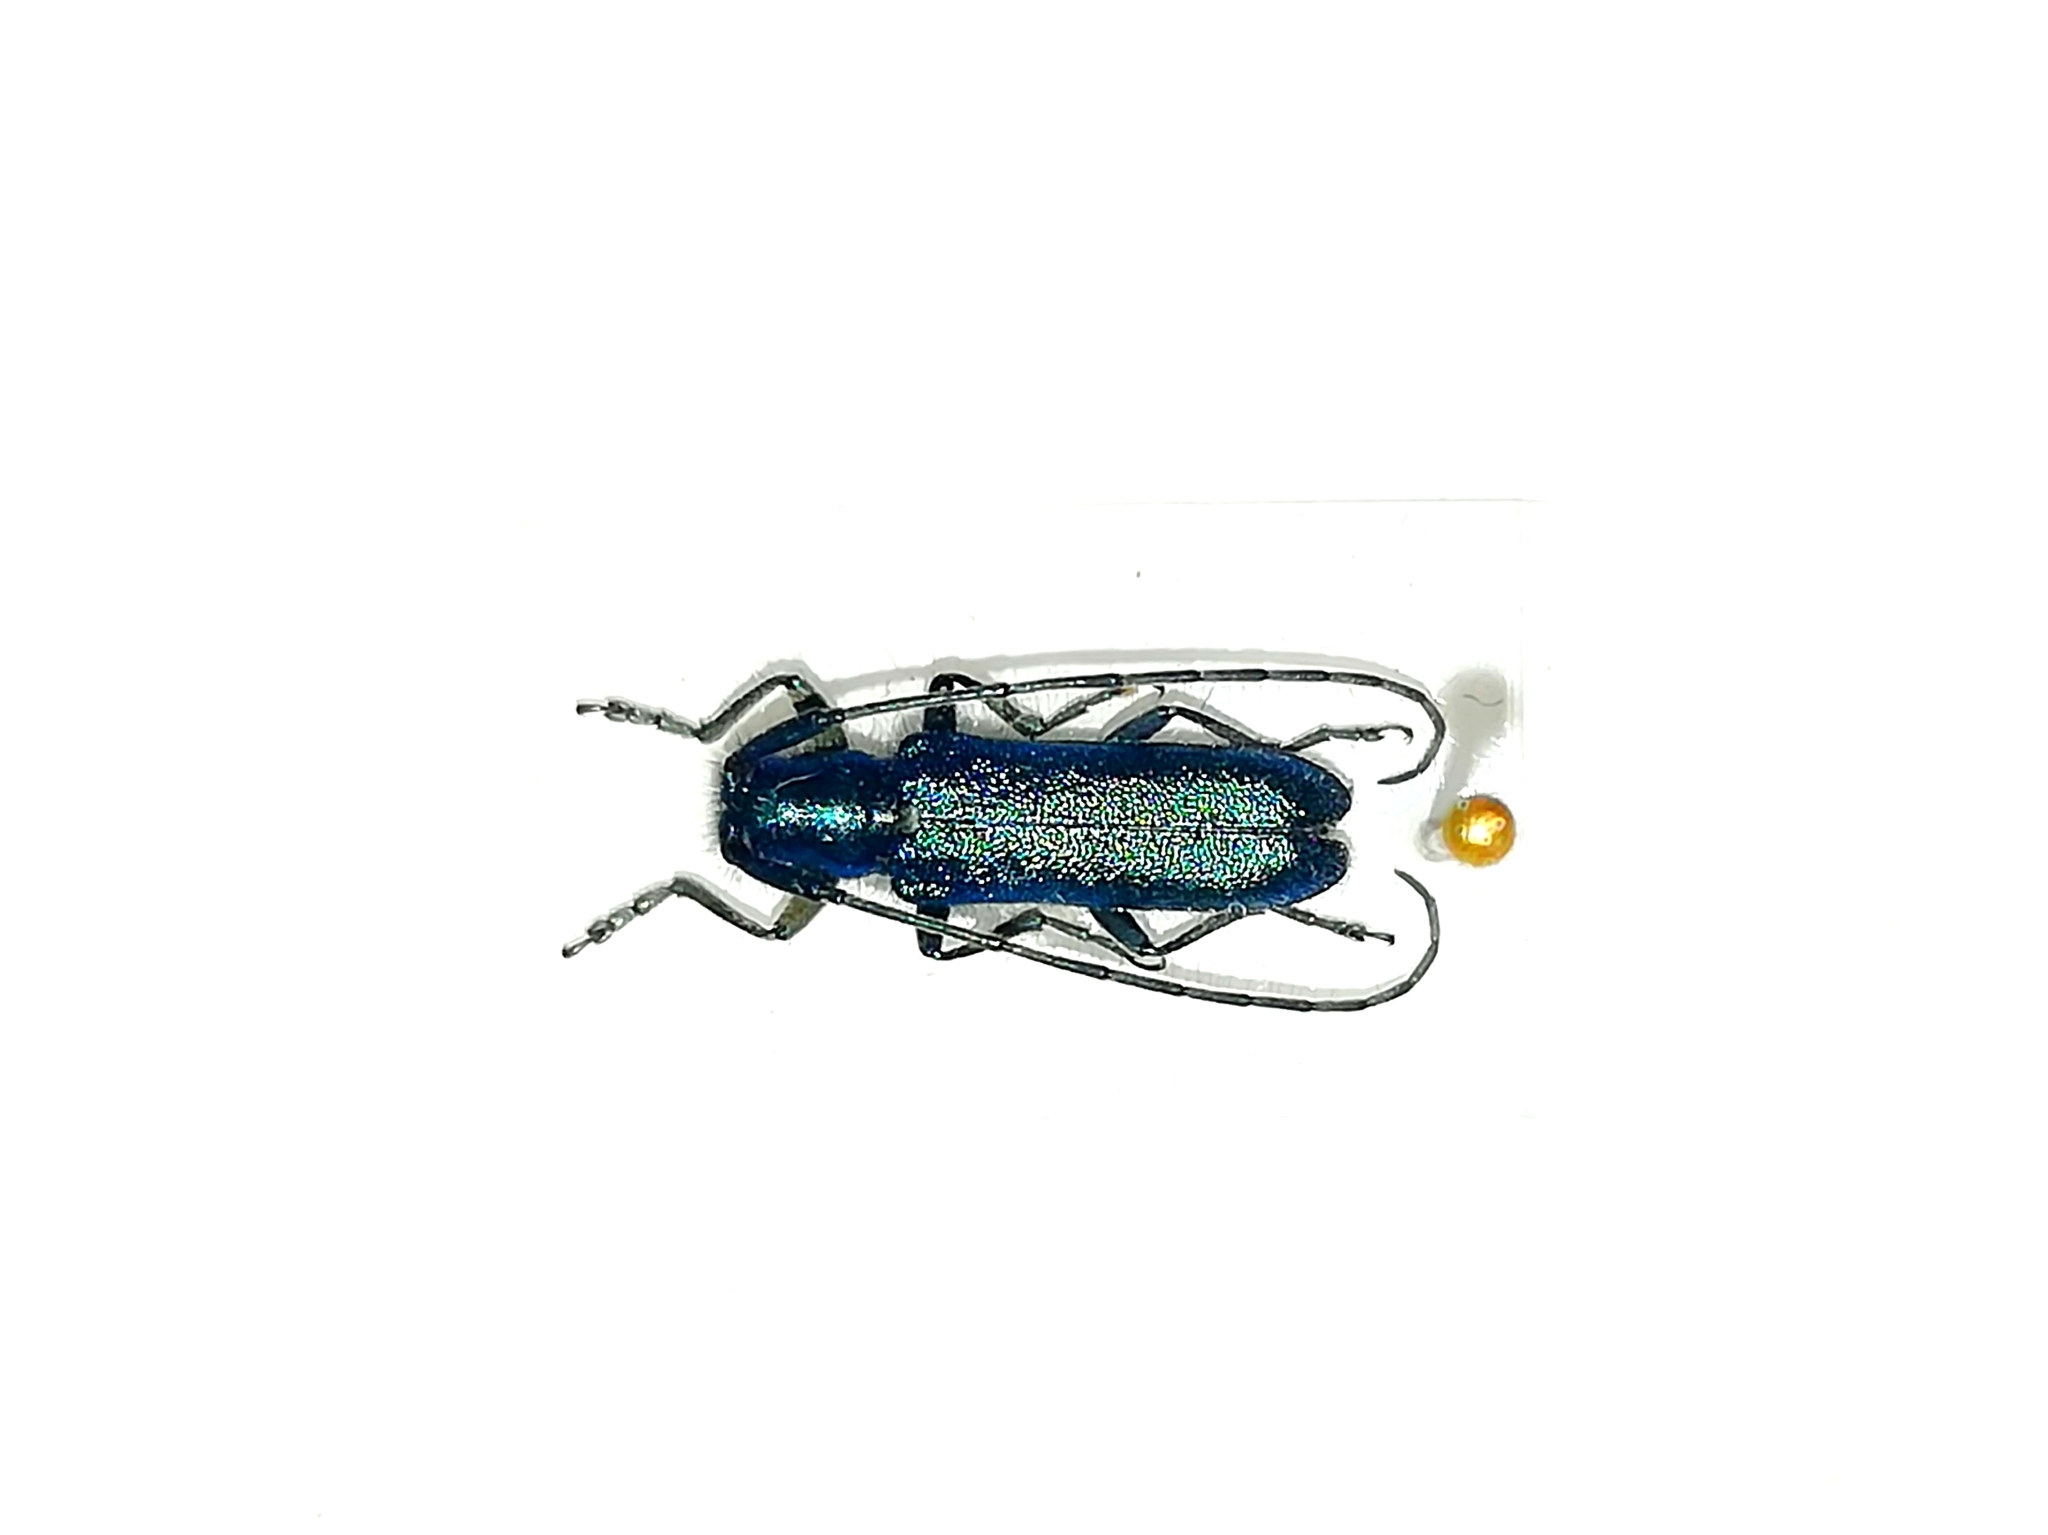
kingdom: Animalia
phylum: Arthropoda
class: Insecta
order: Coleoptera
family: Cerambycidae
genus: Agapanthia
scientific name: Agapanthia intermedia
